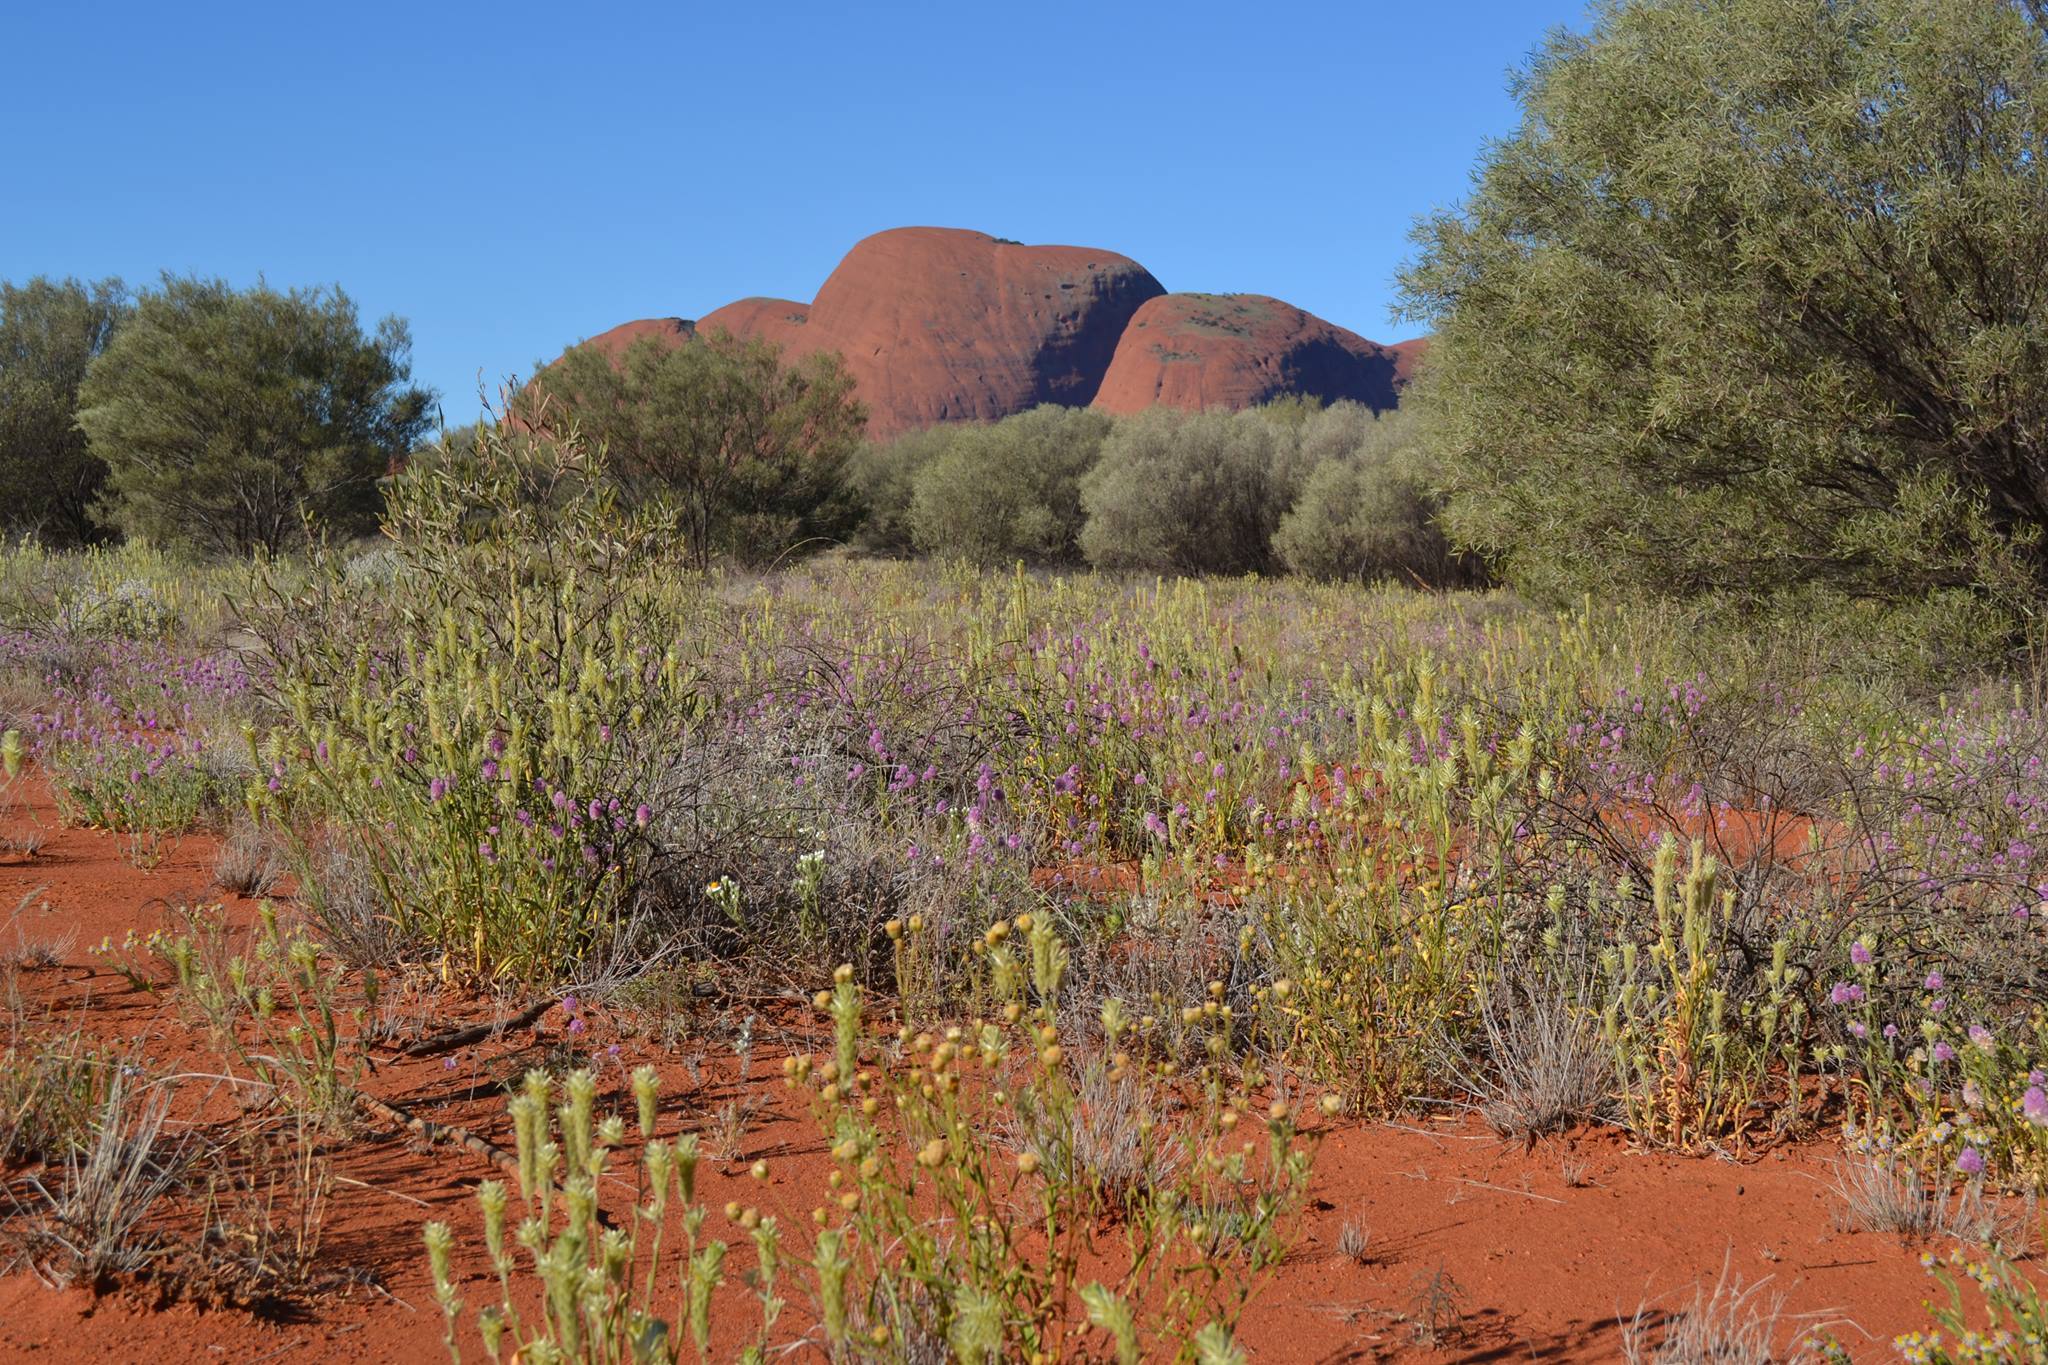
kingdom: Plantae
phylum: Tracheophyta
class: Magnoliopsida
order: Caryophyllales
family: Amaranthaceae
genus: Ptilotus
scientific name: Ptilotus polystachyus
